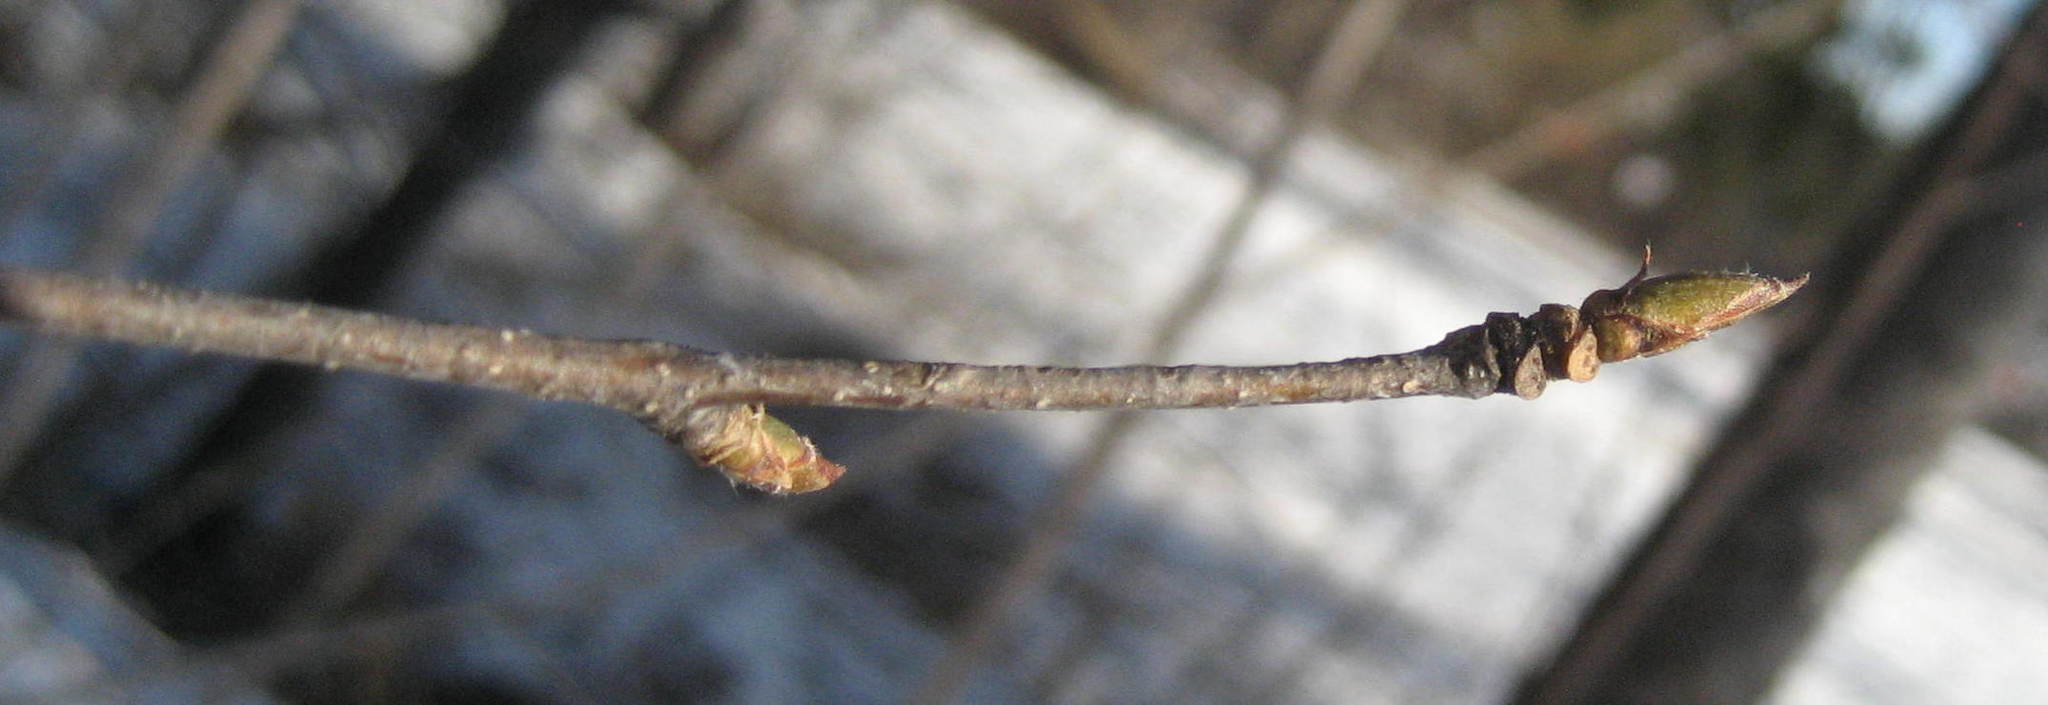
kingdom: Plantae
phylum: Tracheophyta
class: Magnoliopsida
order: Fagales
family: Betulaceae
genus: Betula
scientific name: Betula papyrifera
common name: Paper birch
